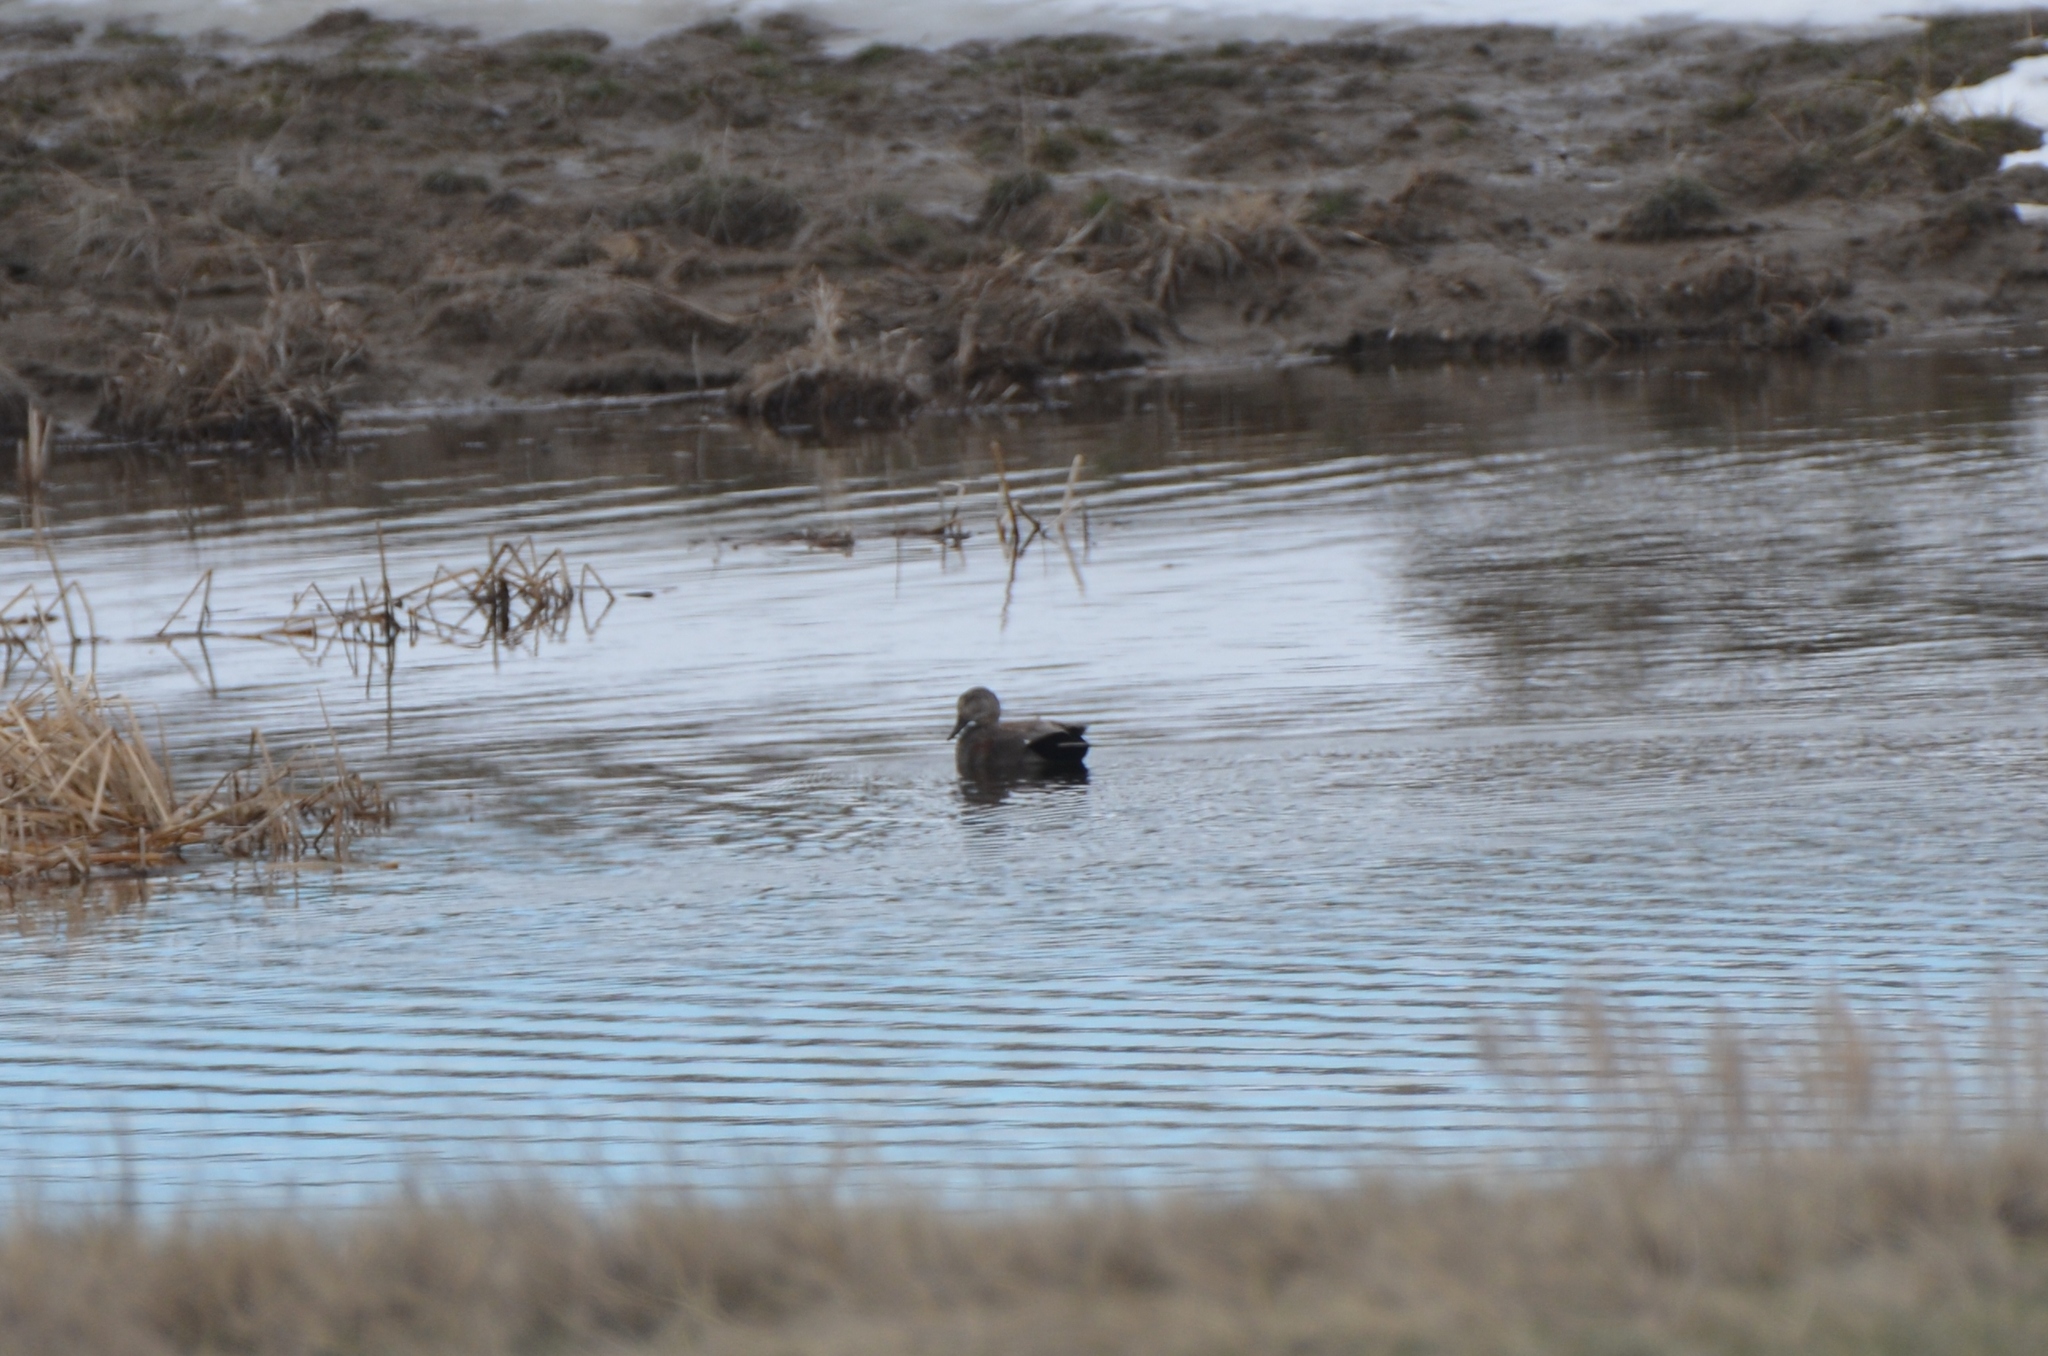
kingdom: Animalia
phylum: Chordata
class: Aves
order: Anseriformes
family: Anatidae
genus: Mareca
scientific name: Mareca strepera
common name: Gadwall
